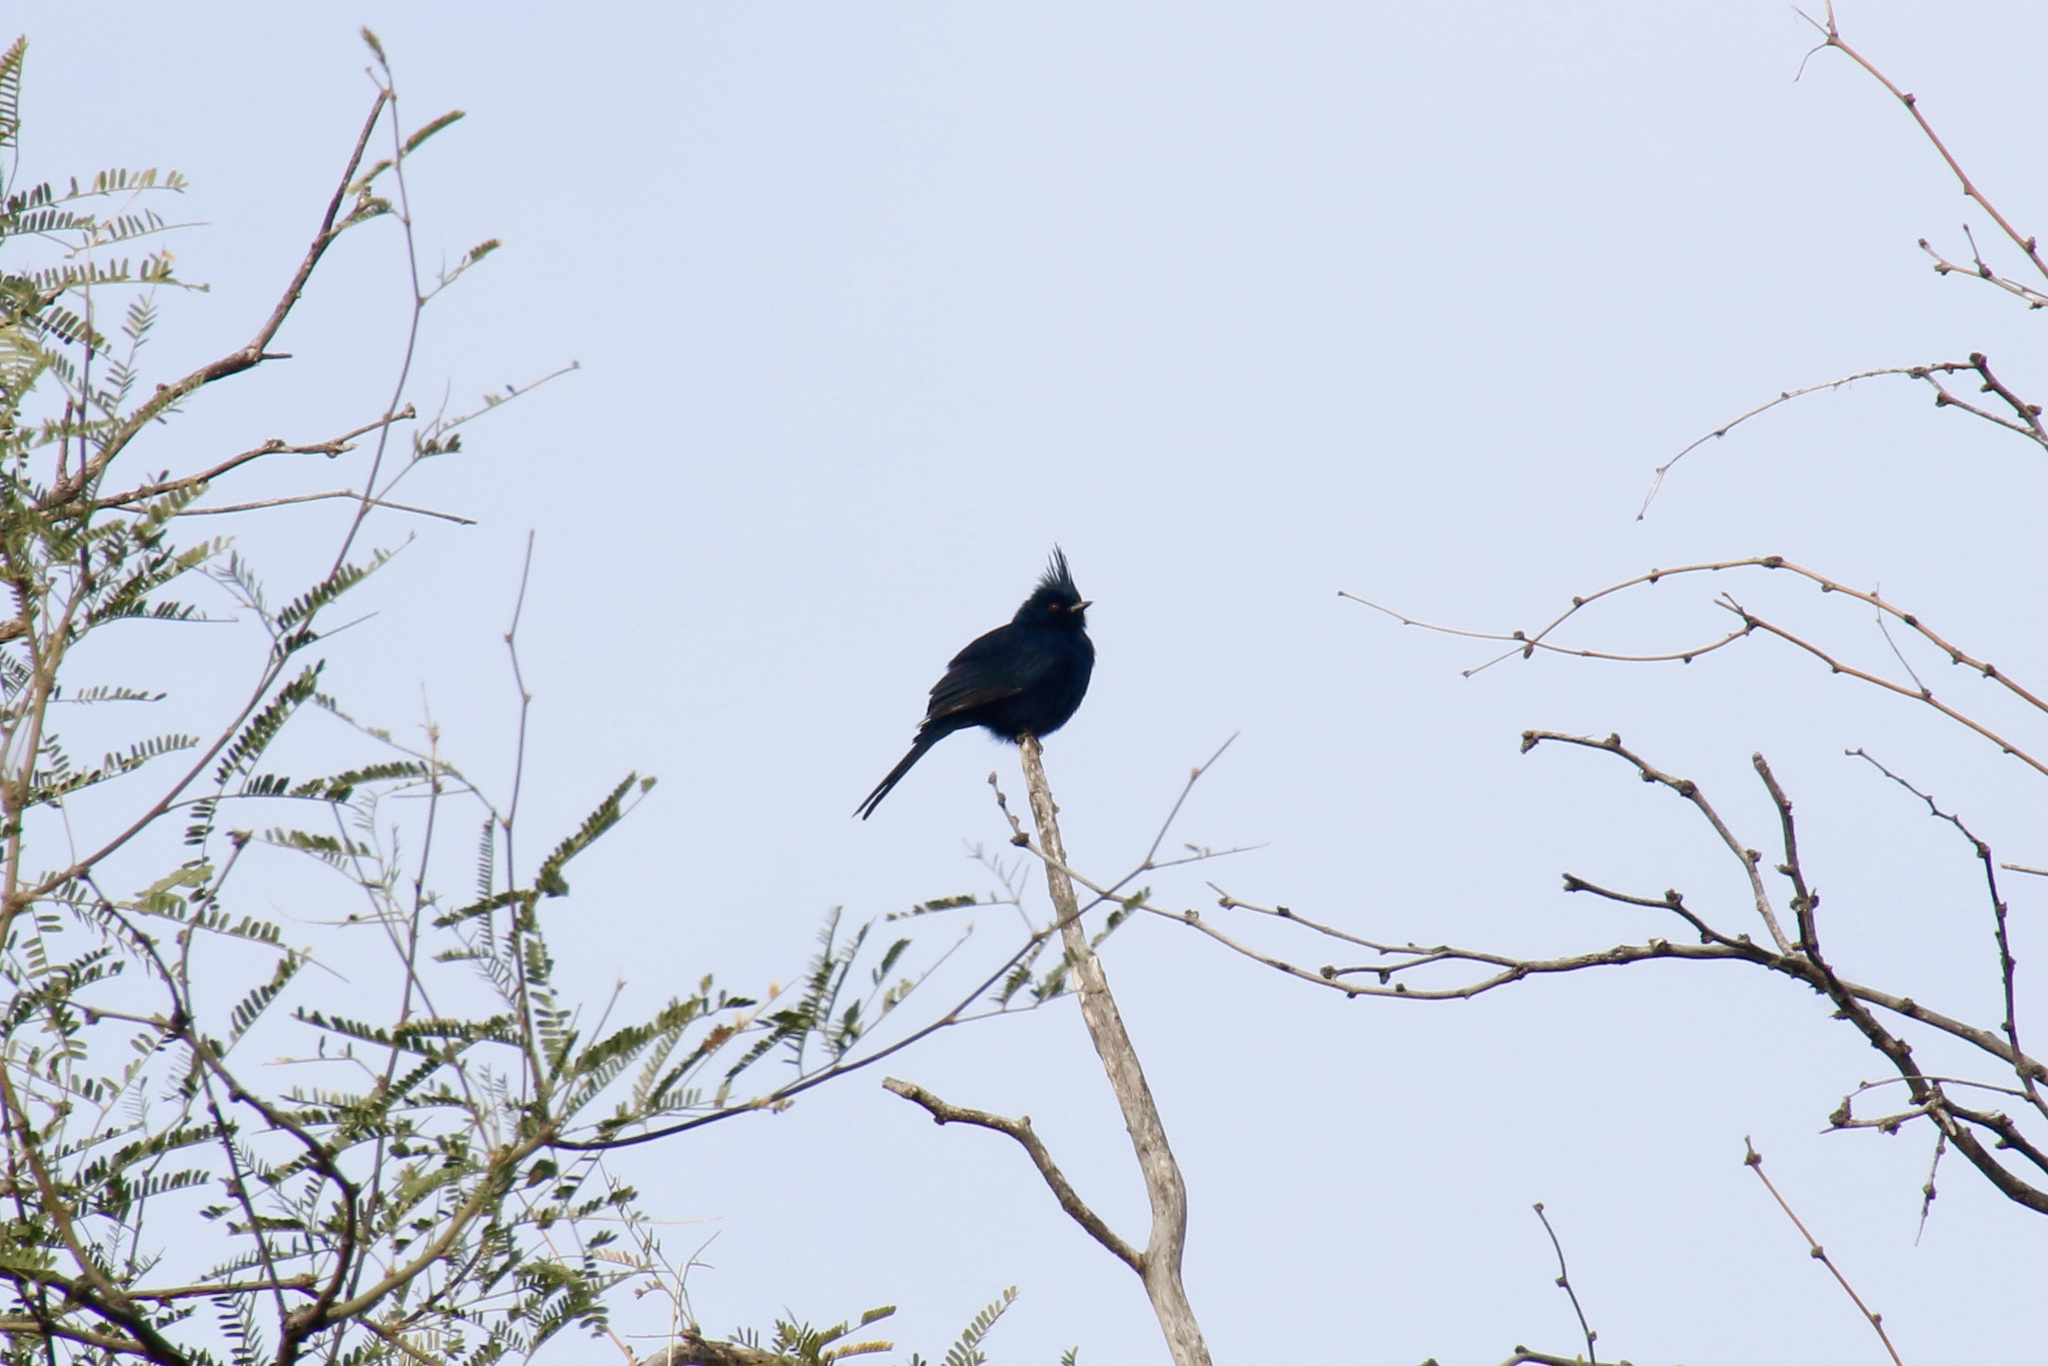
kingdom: Animalia
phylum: Chordata
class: Aves
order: Passeriformes
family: Ptilogonatidae
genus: Phainopepla
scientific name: Phainopepla nitens
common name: Phainopepla
